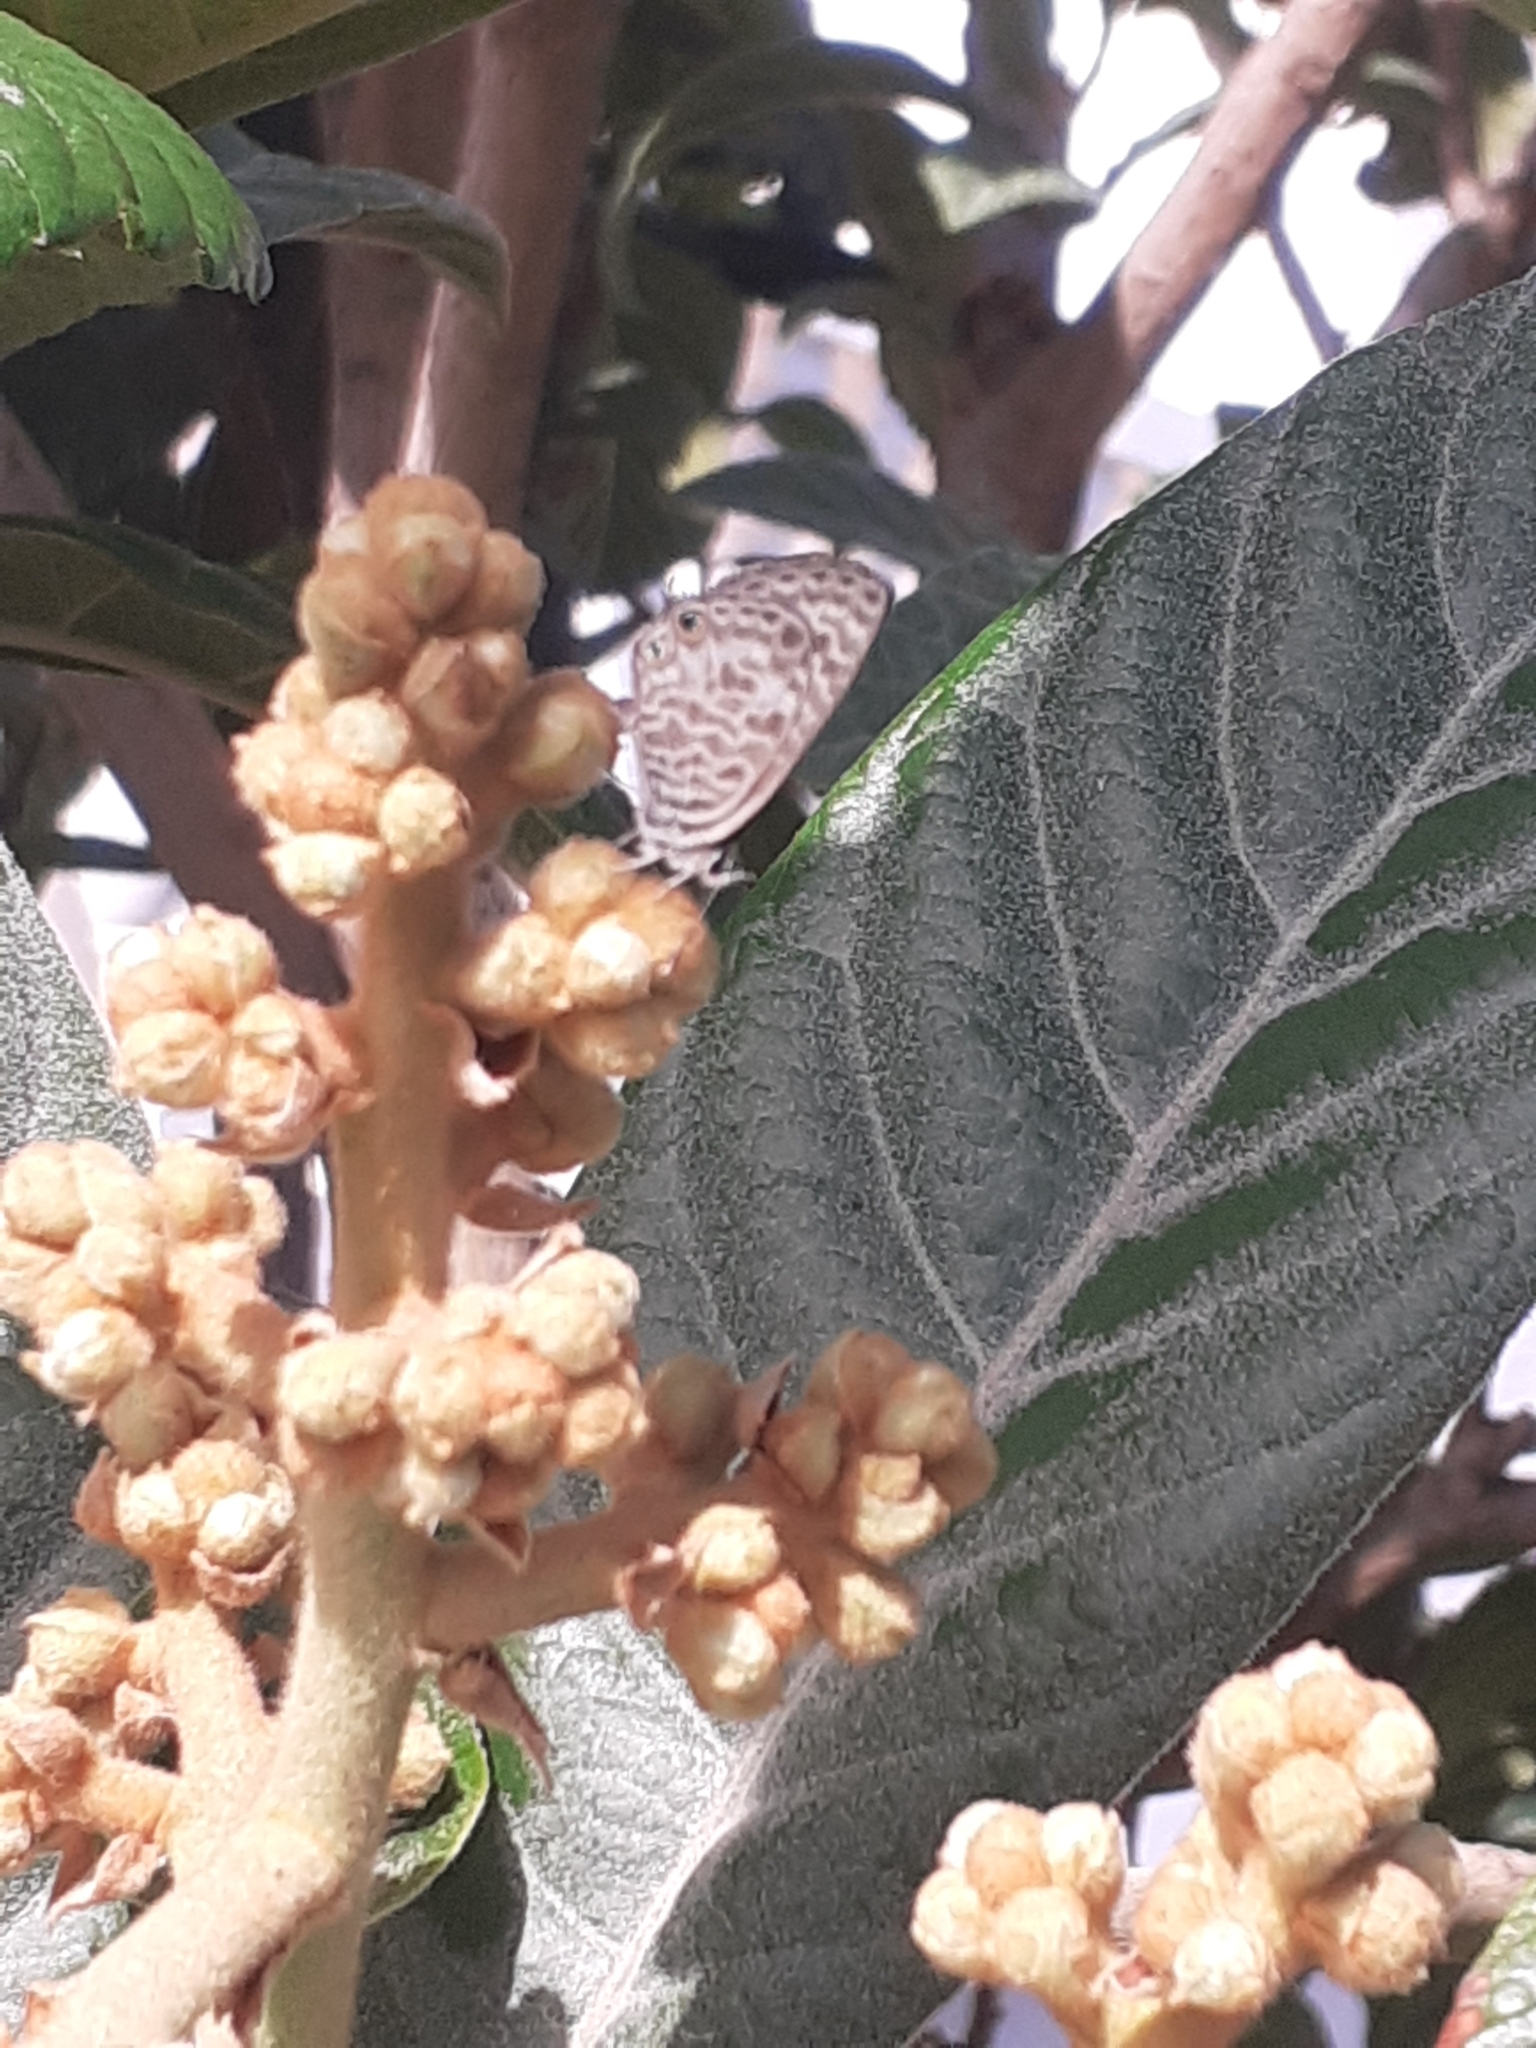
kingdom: Animalia
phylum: Arthropoda
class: Insecta
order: Lepidoptera
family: Lycaenidae
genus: Leptotes
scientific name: Leptotes pirithous
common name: Lang's short-tailed blue
